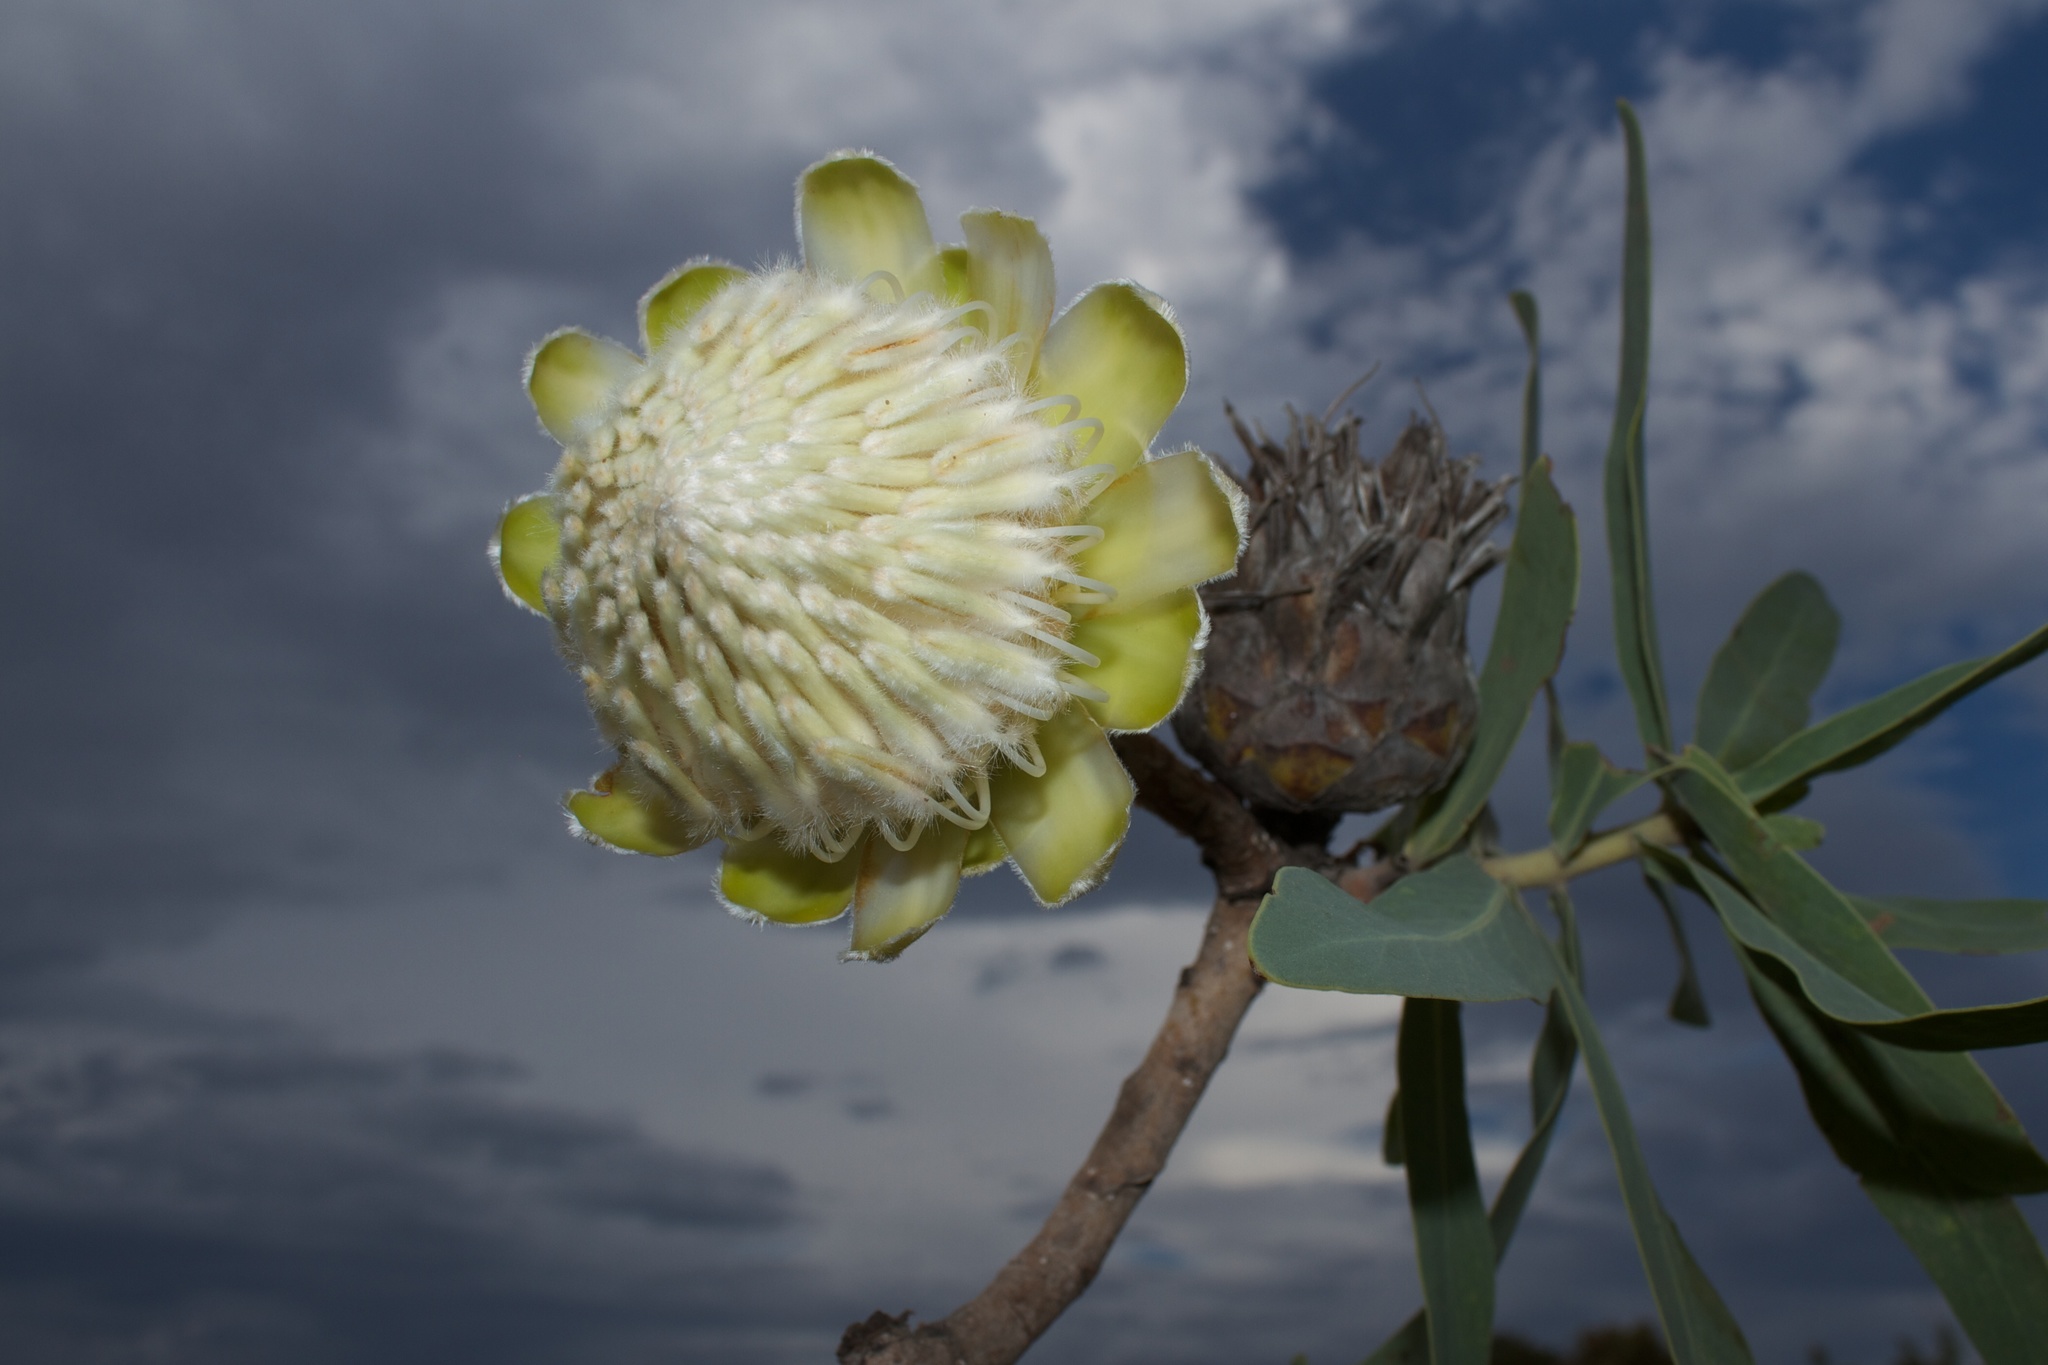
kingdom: Plantae
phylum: Tracheophyta
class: Magnoliopsida
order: Proteales
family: Proteaceae
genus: Protea
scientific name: Protea gaguedi
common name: African protea
